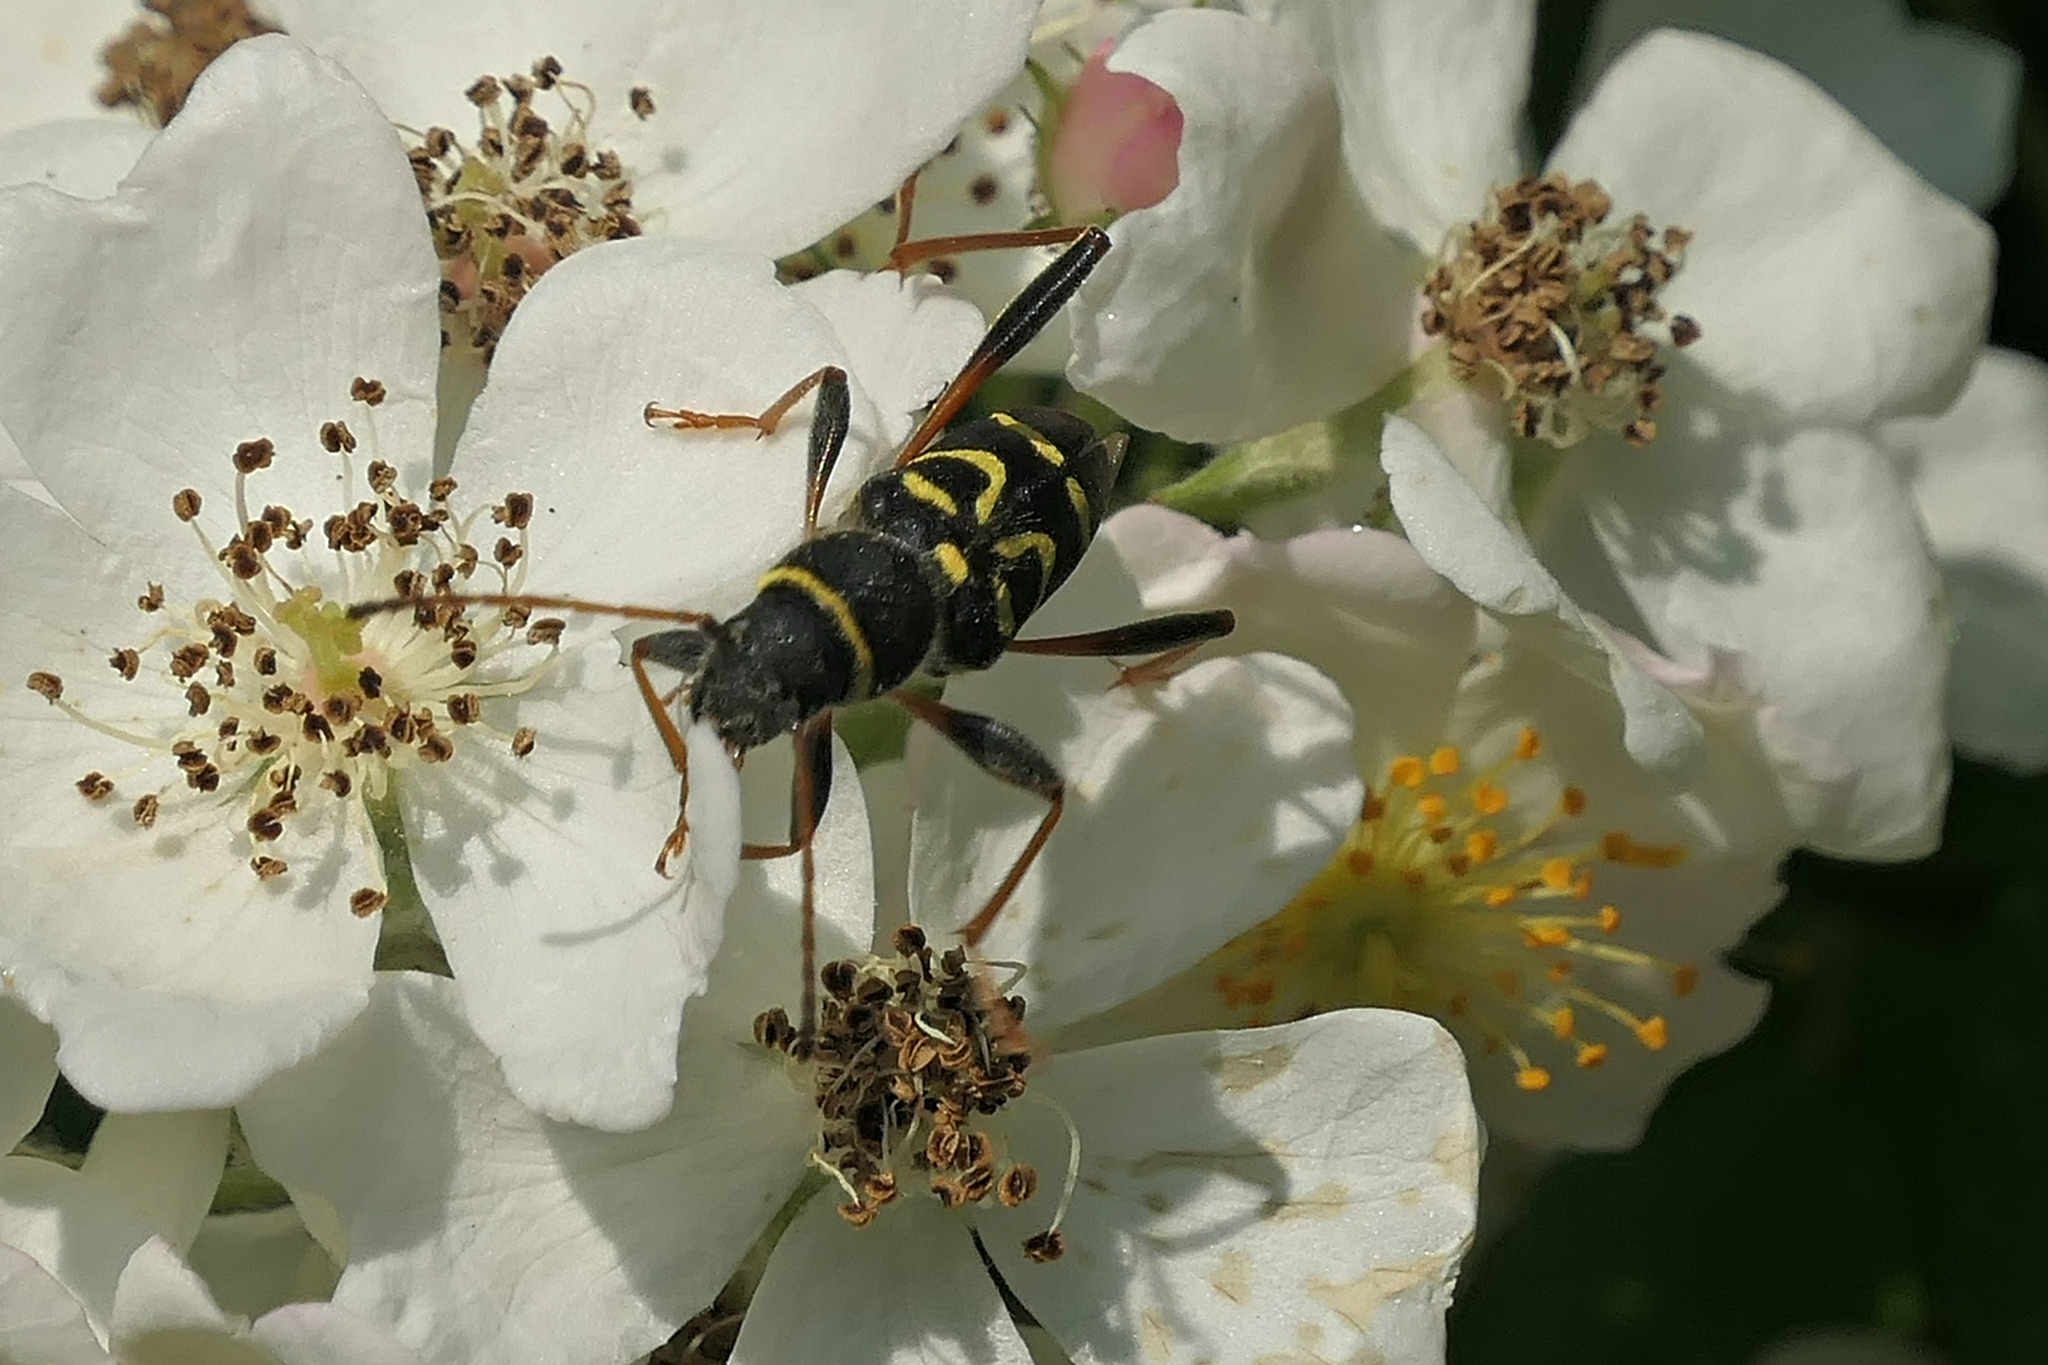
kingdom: Animalia
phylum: Arthropoda
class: Insecta
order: Coleoptera
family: Cerambycidae
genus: Clytus
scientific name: Clytus ruricola
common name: Round-necked longhorn beetle
